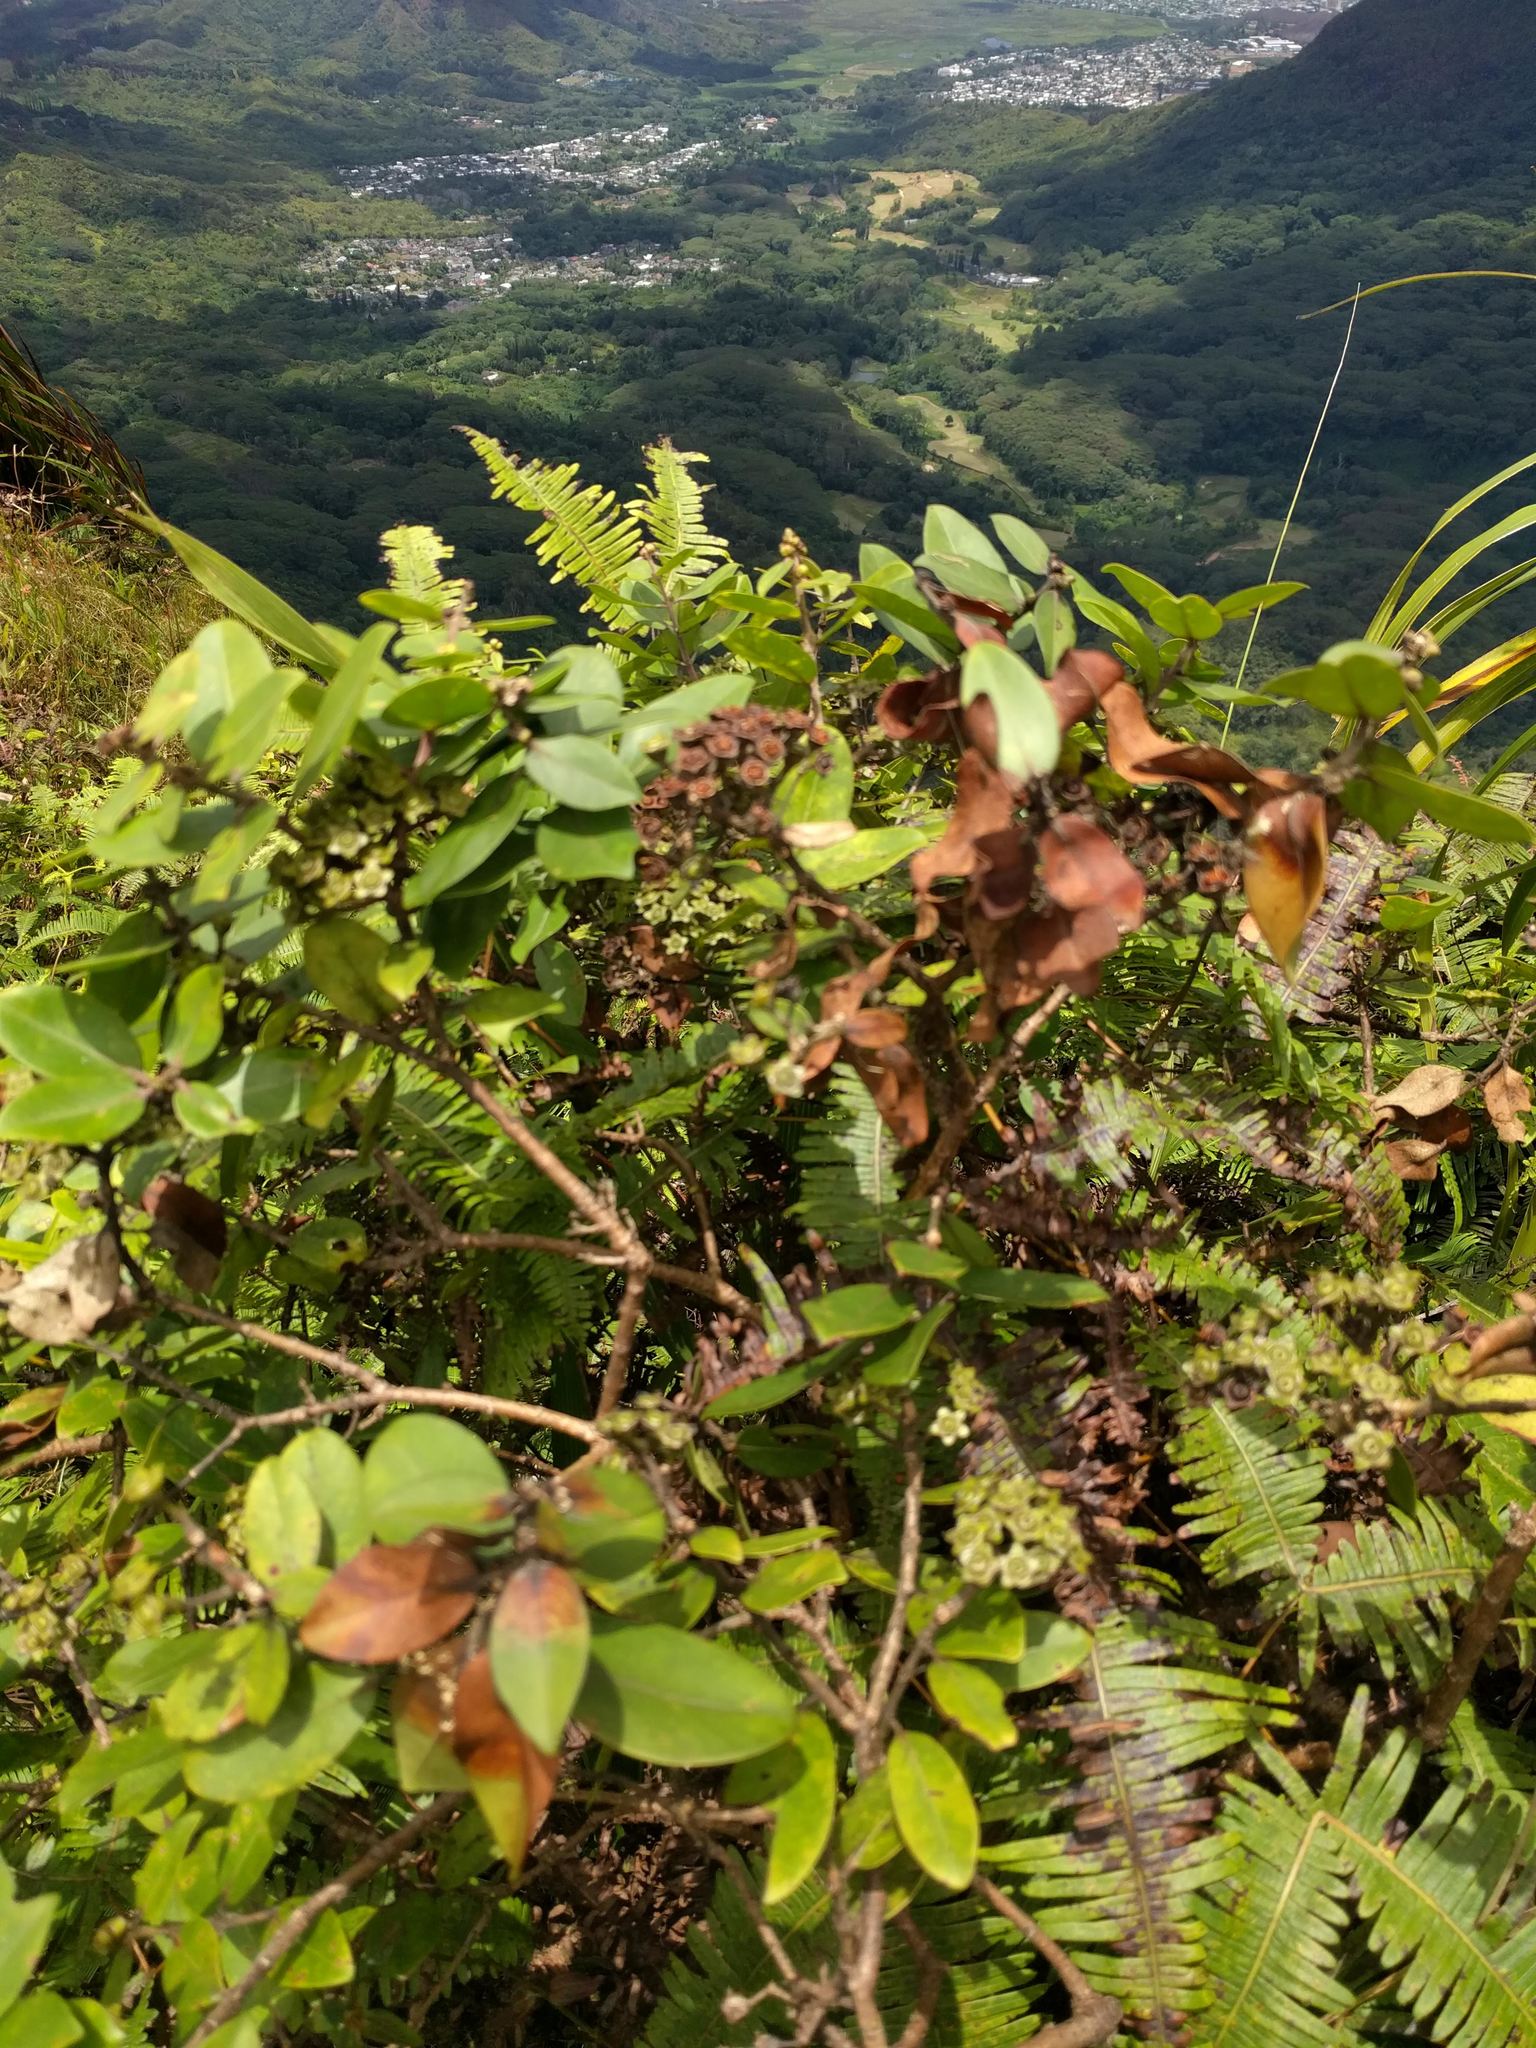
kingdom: Plantae
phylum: Tracheophyta
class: Magnoliopsida
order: Myrtales
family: Myrtaceae
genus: Metrosideros
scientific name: Metrosideros polymorpha
